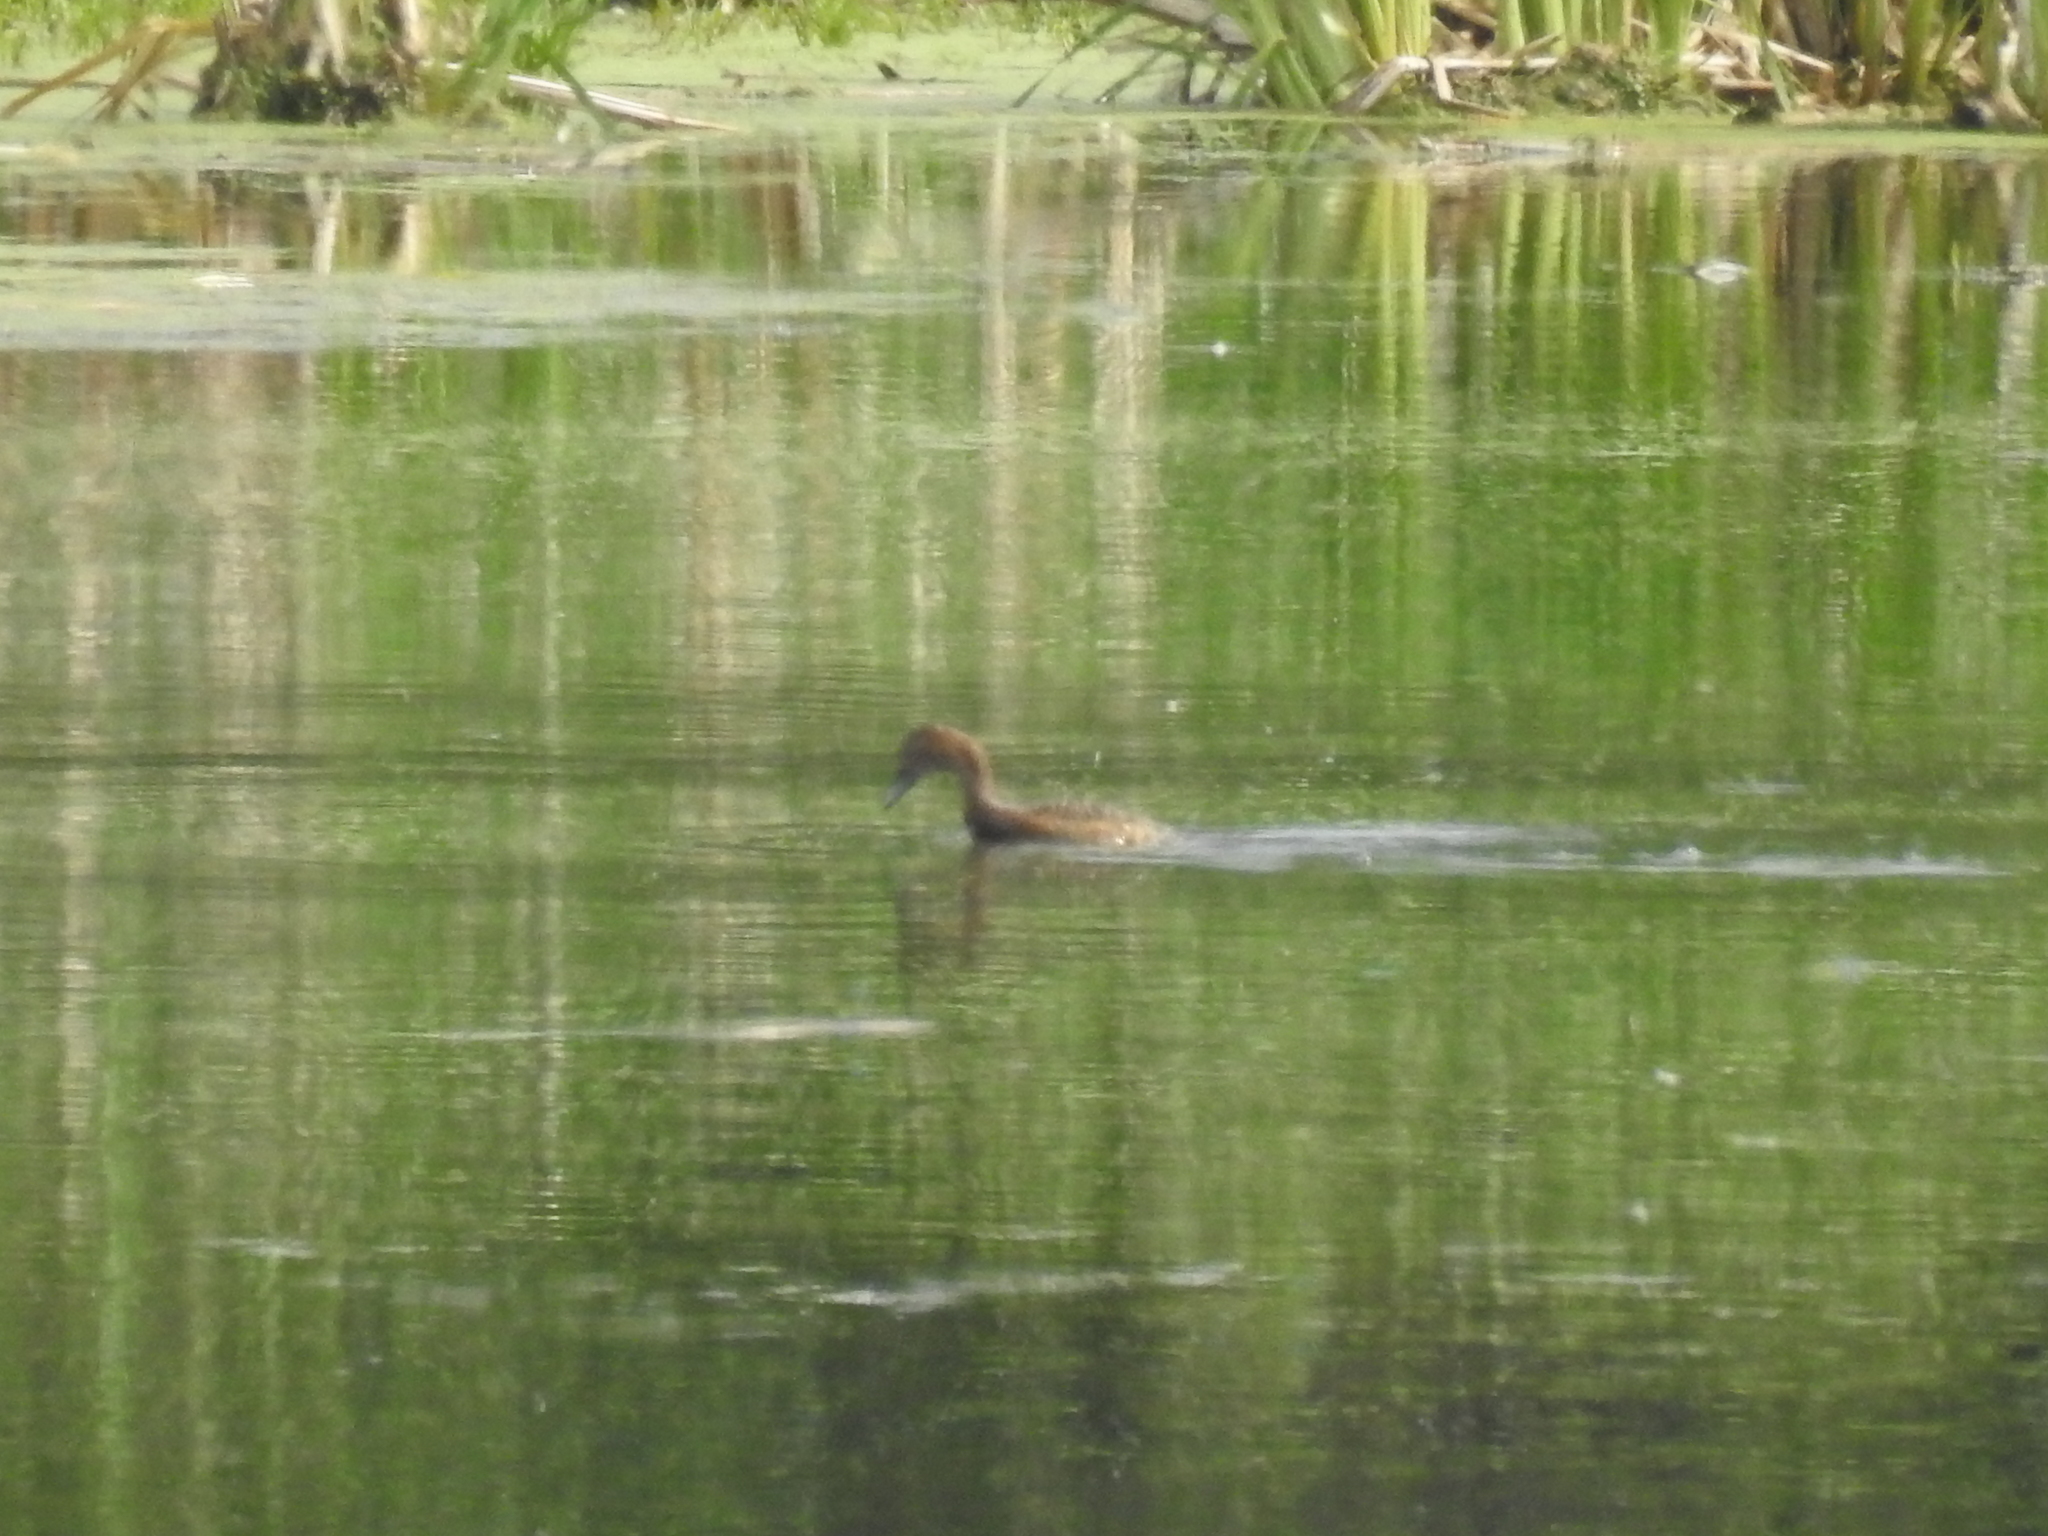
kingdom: Animalia
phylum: Chordata
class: Aves
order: Anseriformes
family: Anatidae
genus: Aythya
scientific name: Aythya valisineria
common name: Canvasback
